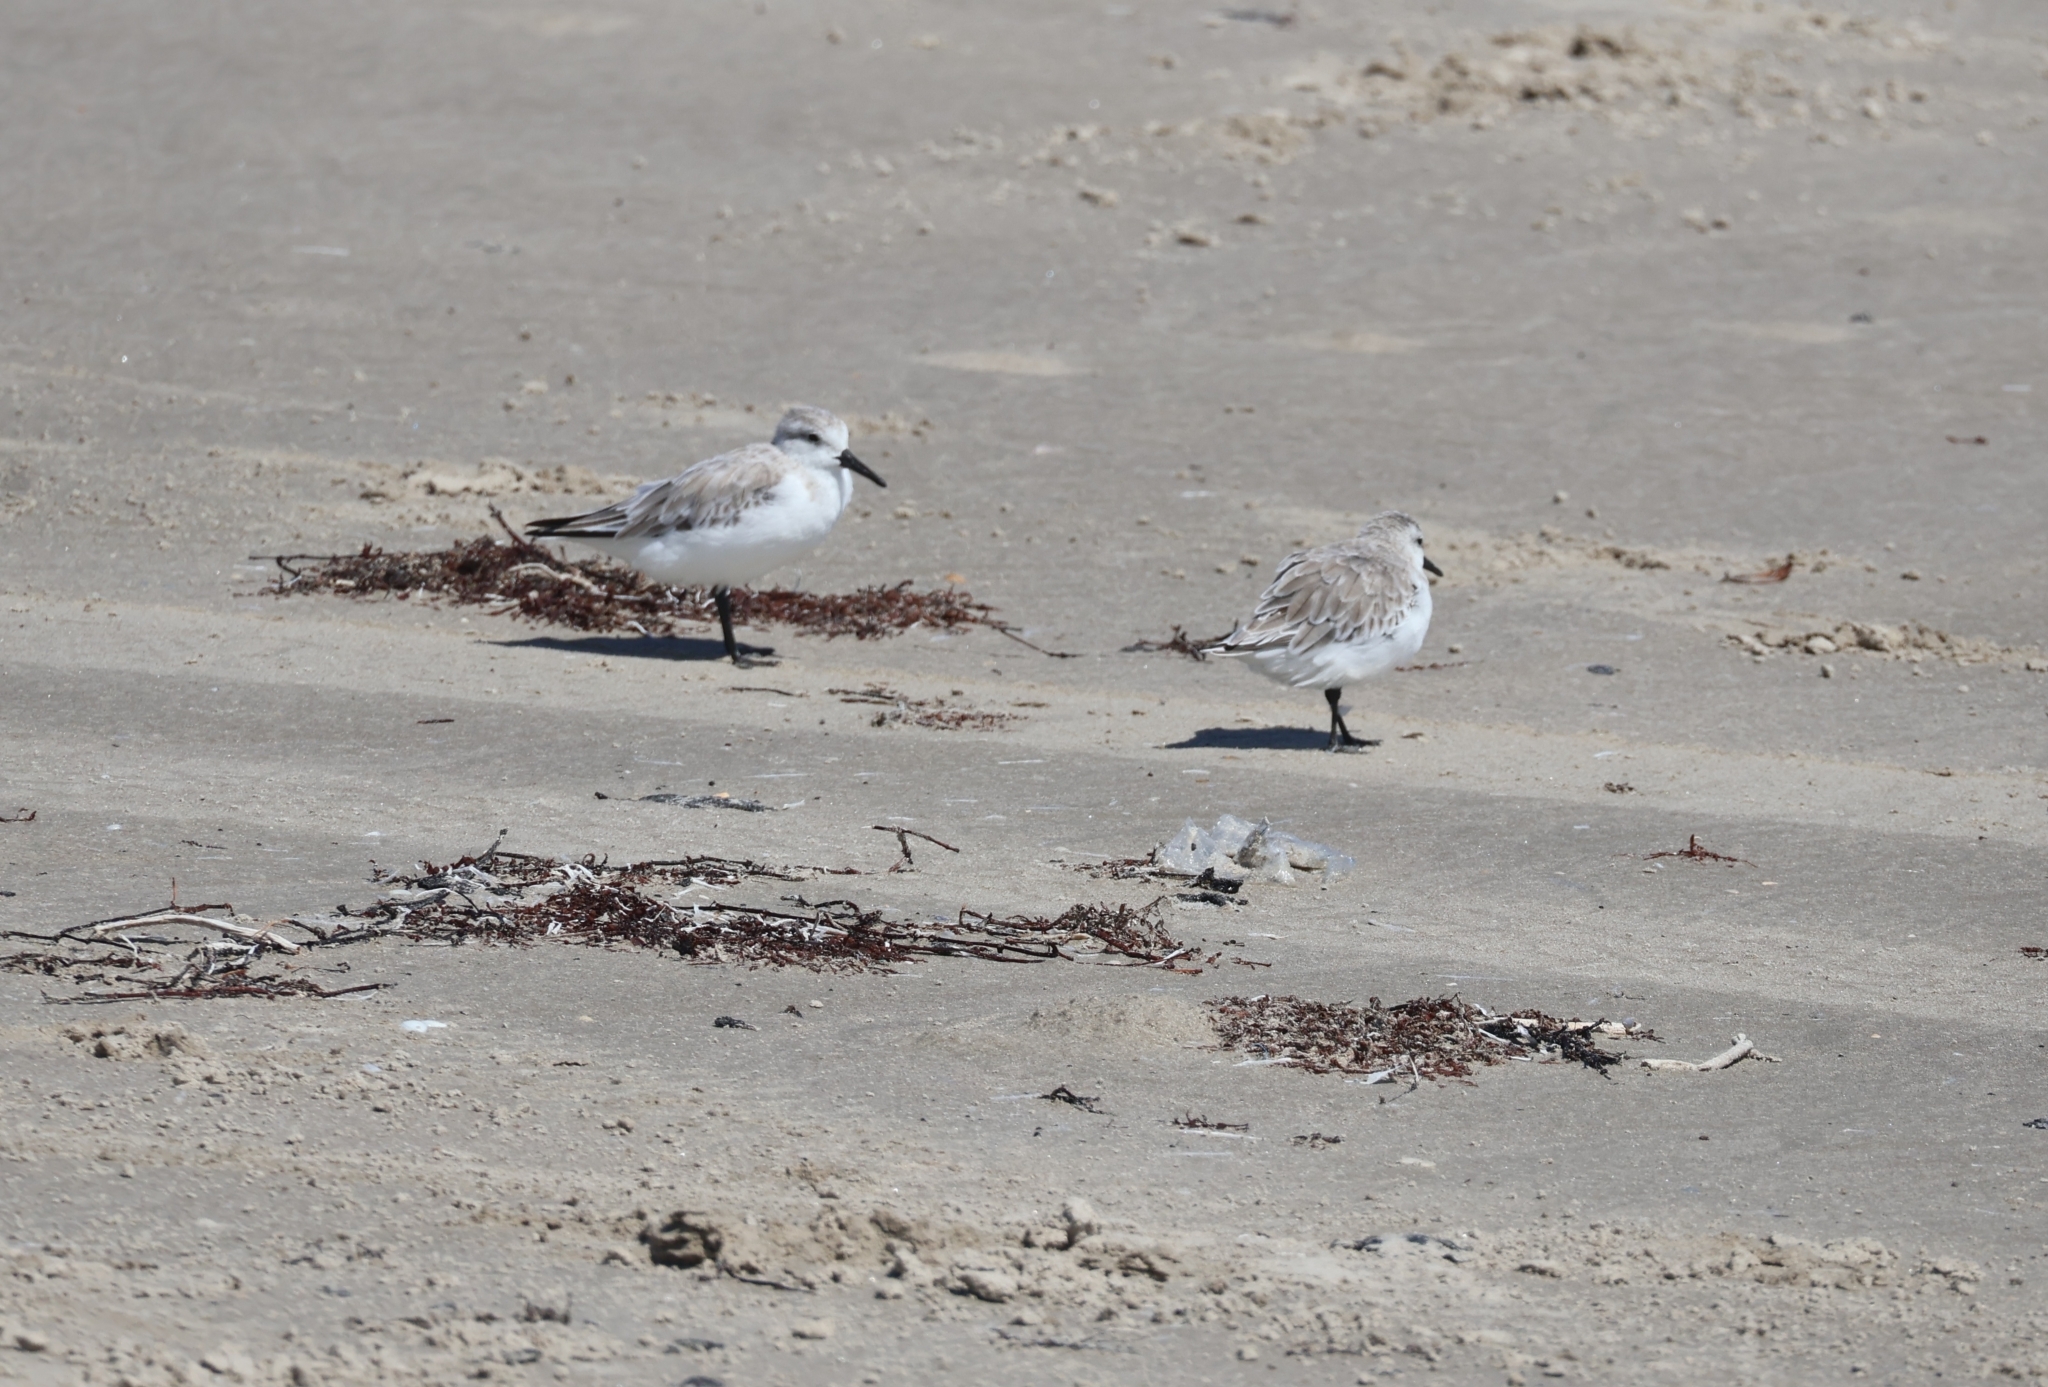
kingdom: Animalia
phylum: Chordata
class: Aves
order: Charadriiformes
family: Scolopacidae
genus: Calidris
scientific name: Calidris alba
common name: Sanderling
